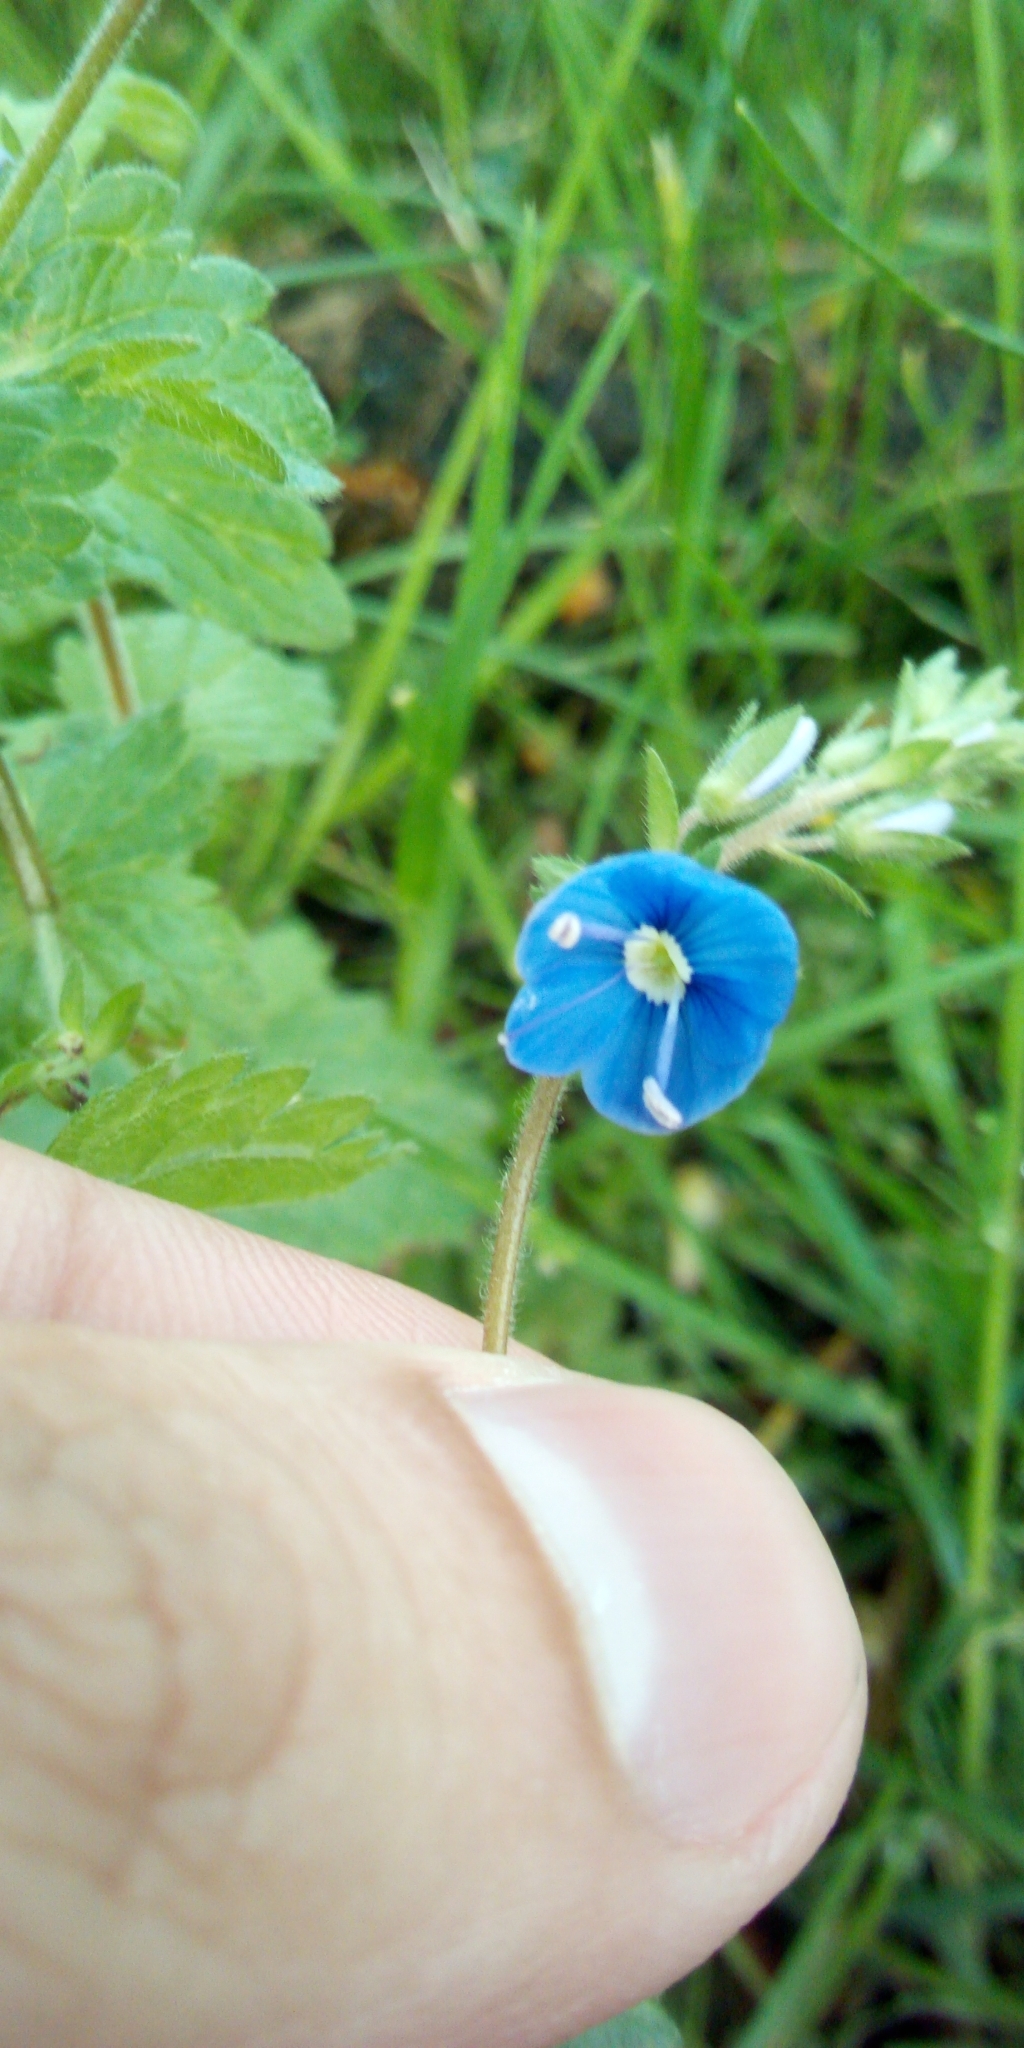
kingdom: Plantae
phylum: Tracheophyta
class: Magnoliopsida
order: Lamiales
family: Plantaginaceae
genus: Veronica
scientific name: Veronica chamaedrys
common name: Germander speedwell
